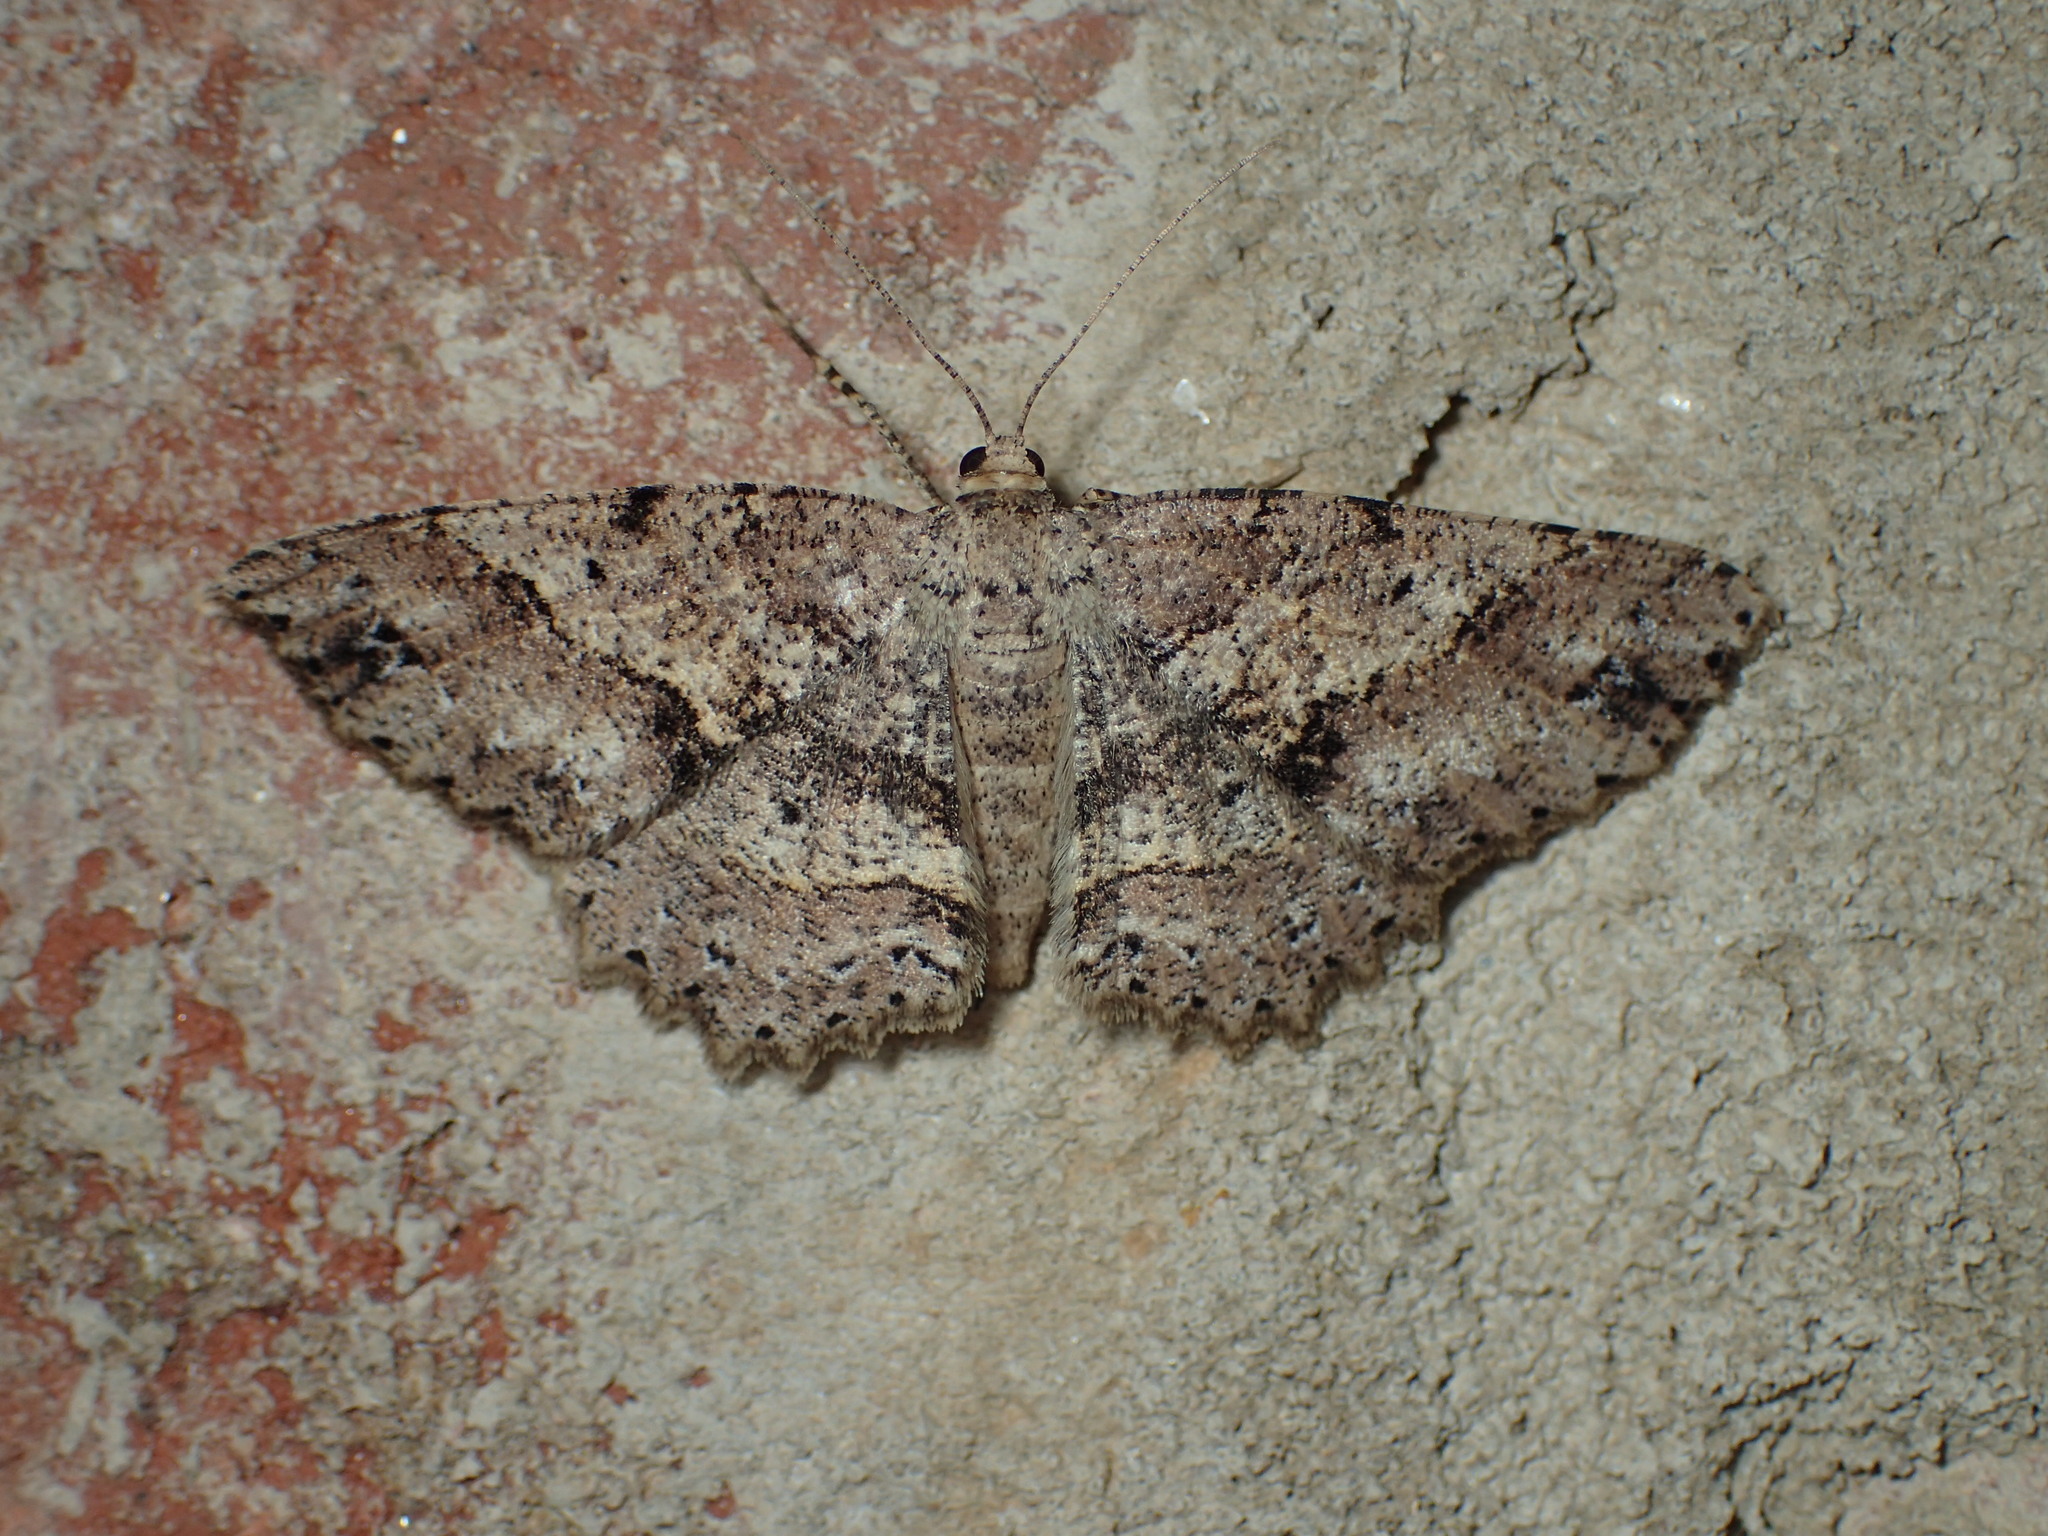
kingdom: Animalia
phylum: Arthropoda
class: Insecta
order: Lepidoptera
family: Geometridae
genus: Melanolophia
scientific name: Melanolophia canadaria
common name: Canadian melanolophia
